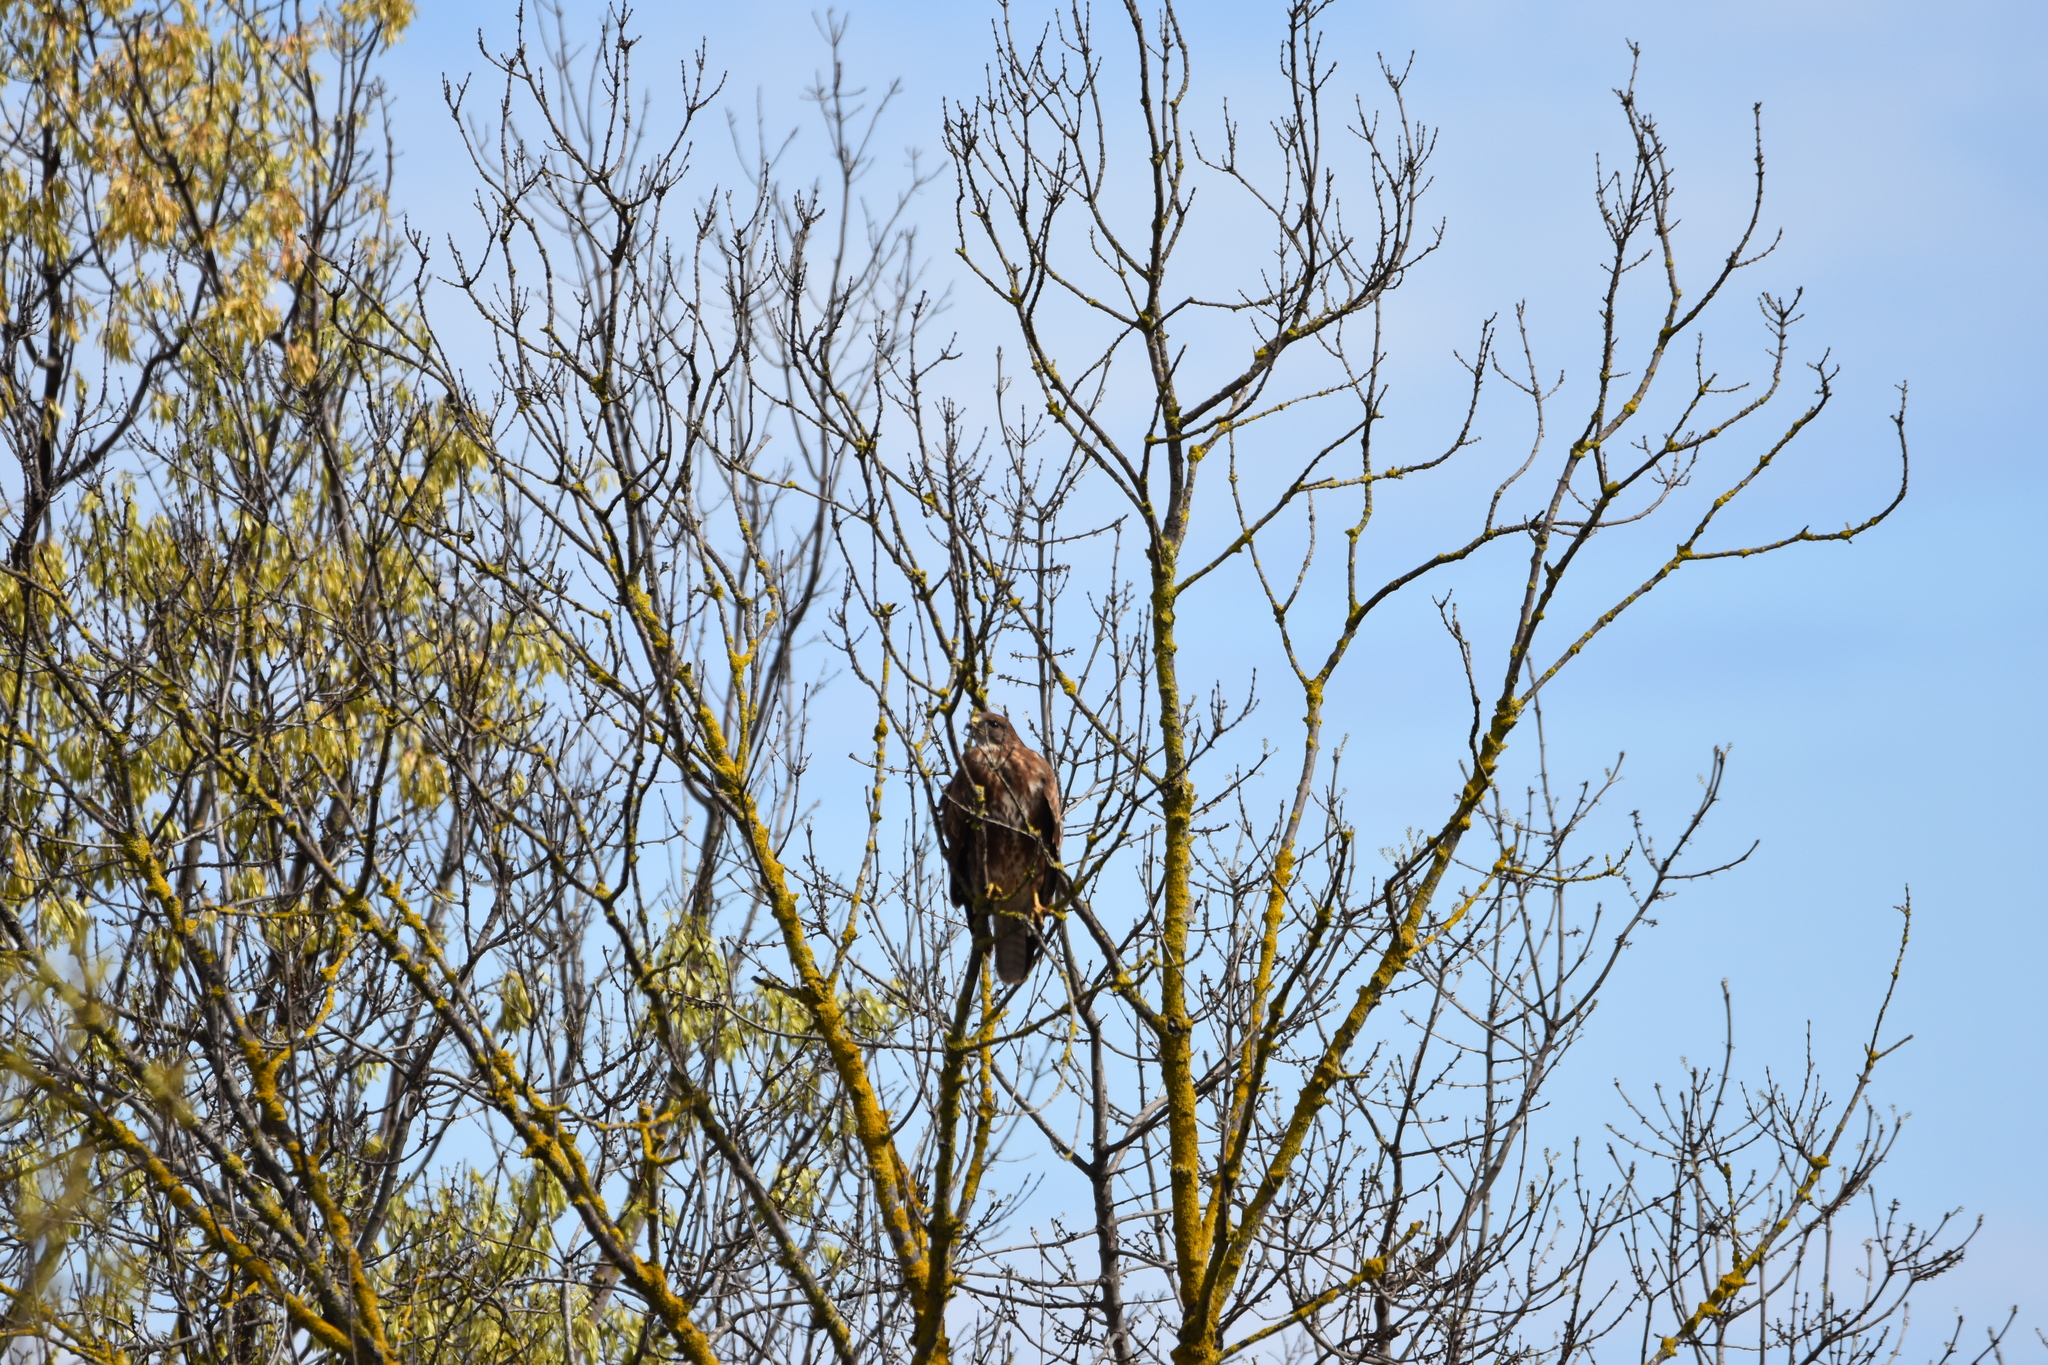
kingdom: Animalia
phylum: Chordata
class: Aves
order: Accipitriformes
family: Accipitridae
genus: Buteo
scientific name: Buteo buteo
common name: Common buzzard
